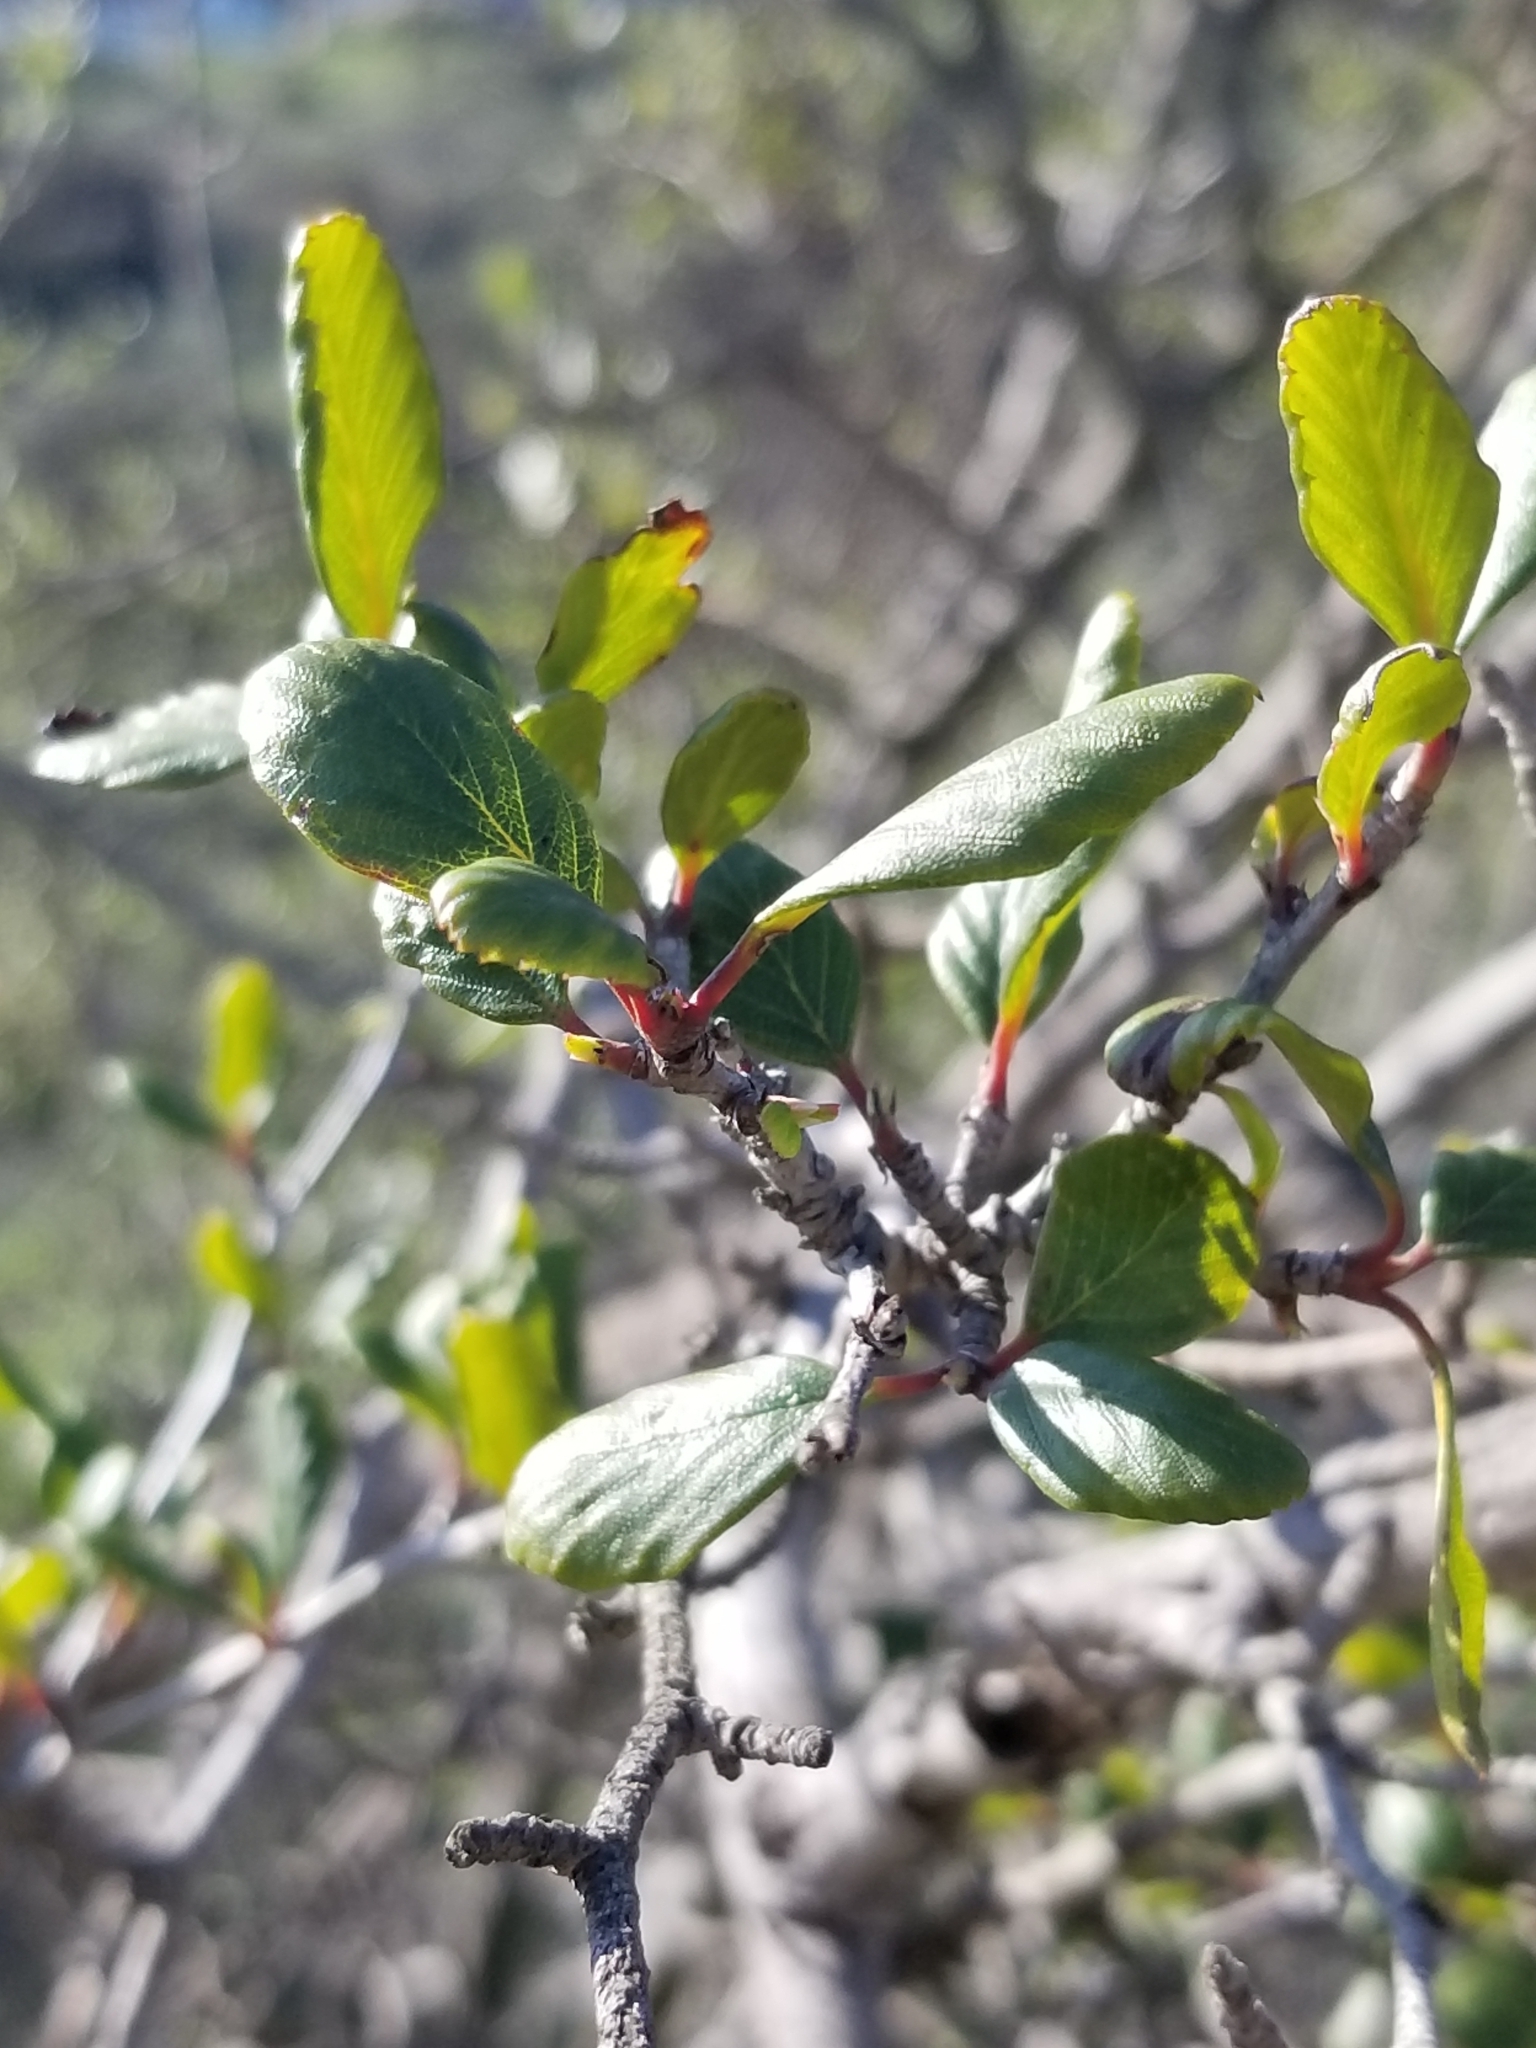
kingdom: Plantae
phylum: Tracheophyta
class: Magnoliopsida
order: Rosales
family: Rosaceae
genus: Cercocarpus
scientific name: Cercocarpus montanus
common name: Alder-leaf cercocarpus
